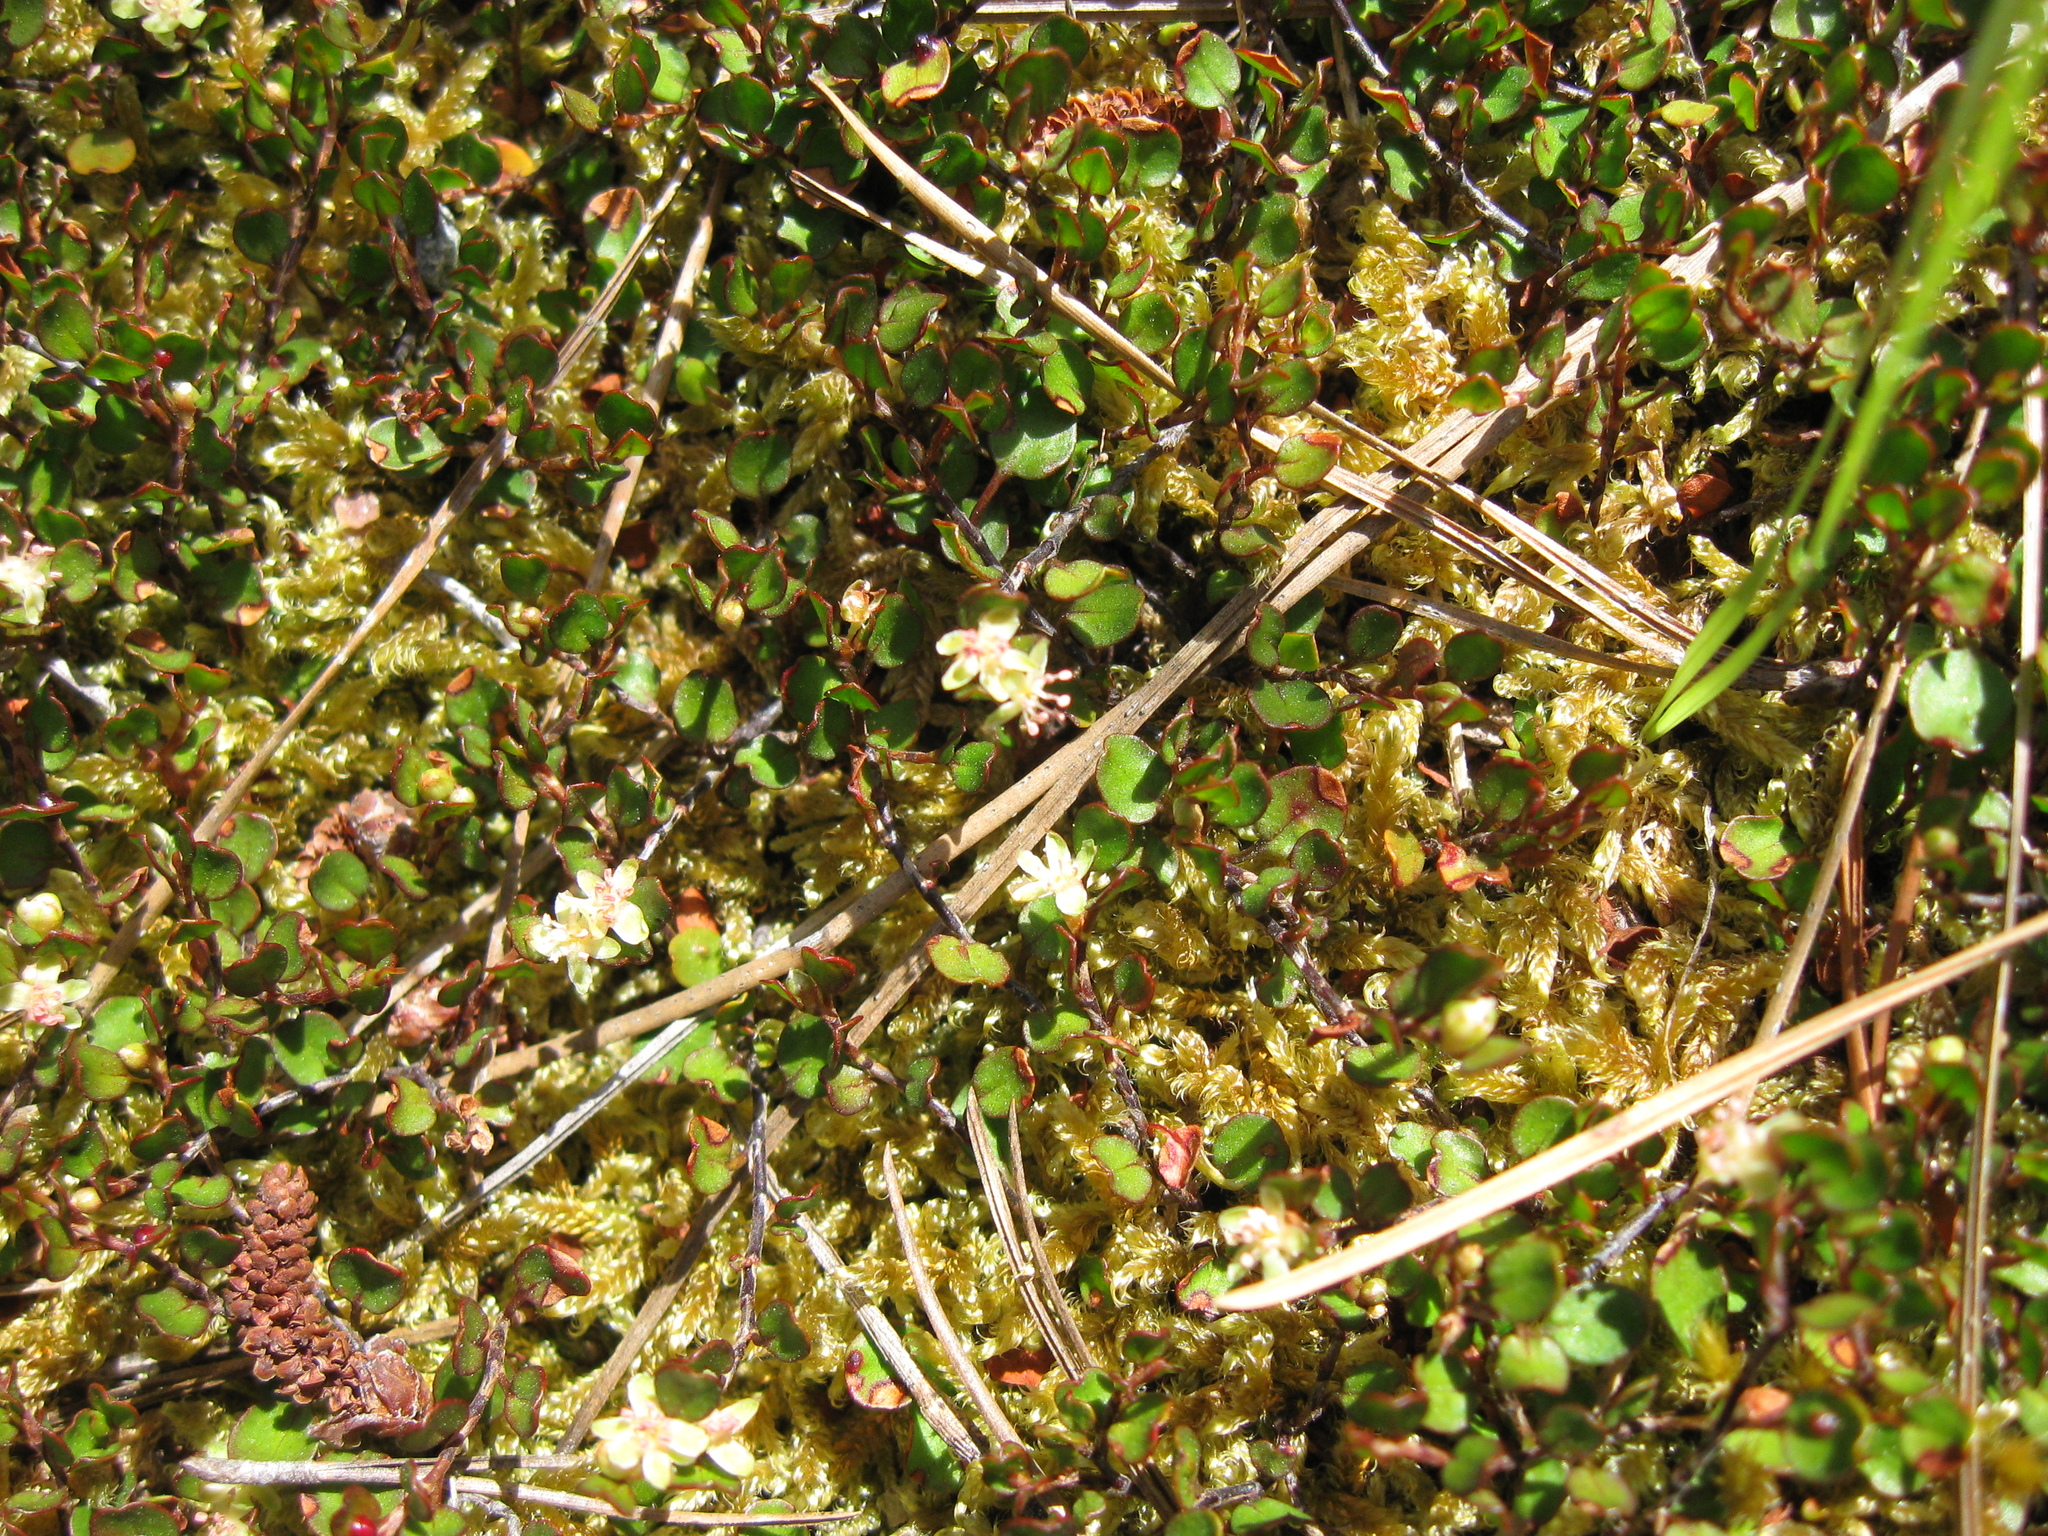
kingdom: Plantae
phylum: Tracheophyta
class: Magnoliopsida
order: Caryophyllales
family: Polygonaceae
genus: Muehlenbeckia
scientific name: Muehlenbeckia axillaris
